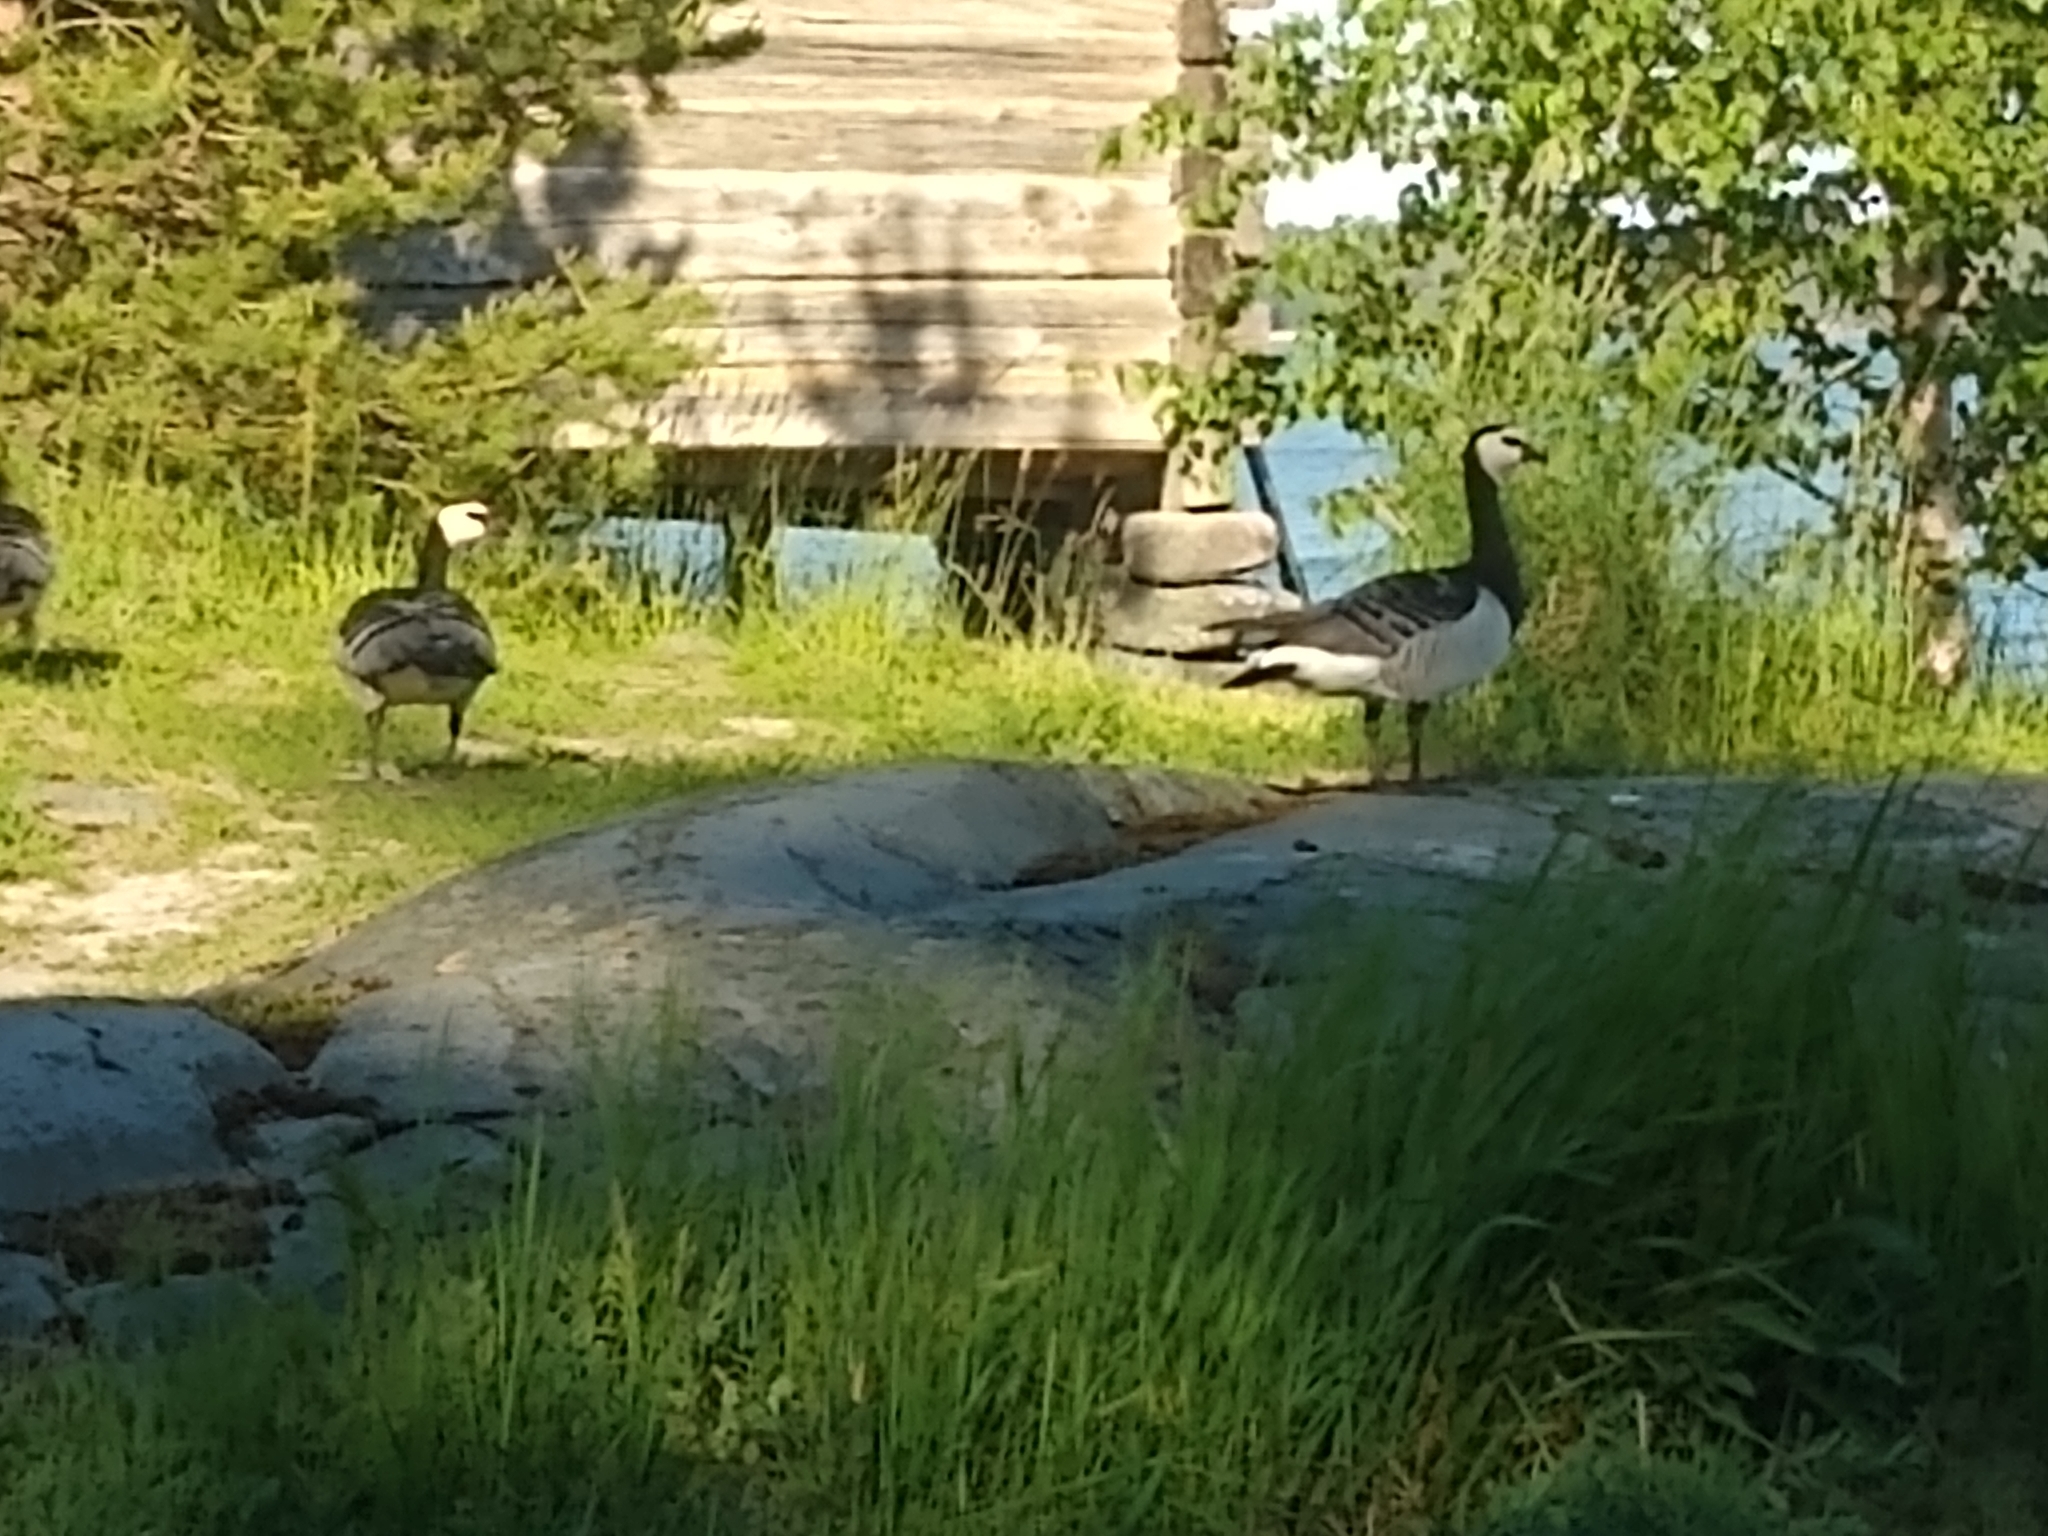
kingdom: Animalia
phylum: Chordata
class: Aves
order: Anseriformes
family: Anatidae
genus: Branta
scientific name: Branta leucopsis
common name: Barnacle goose
